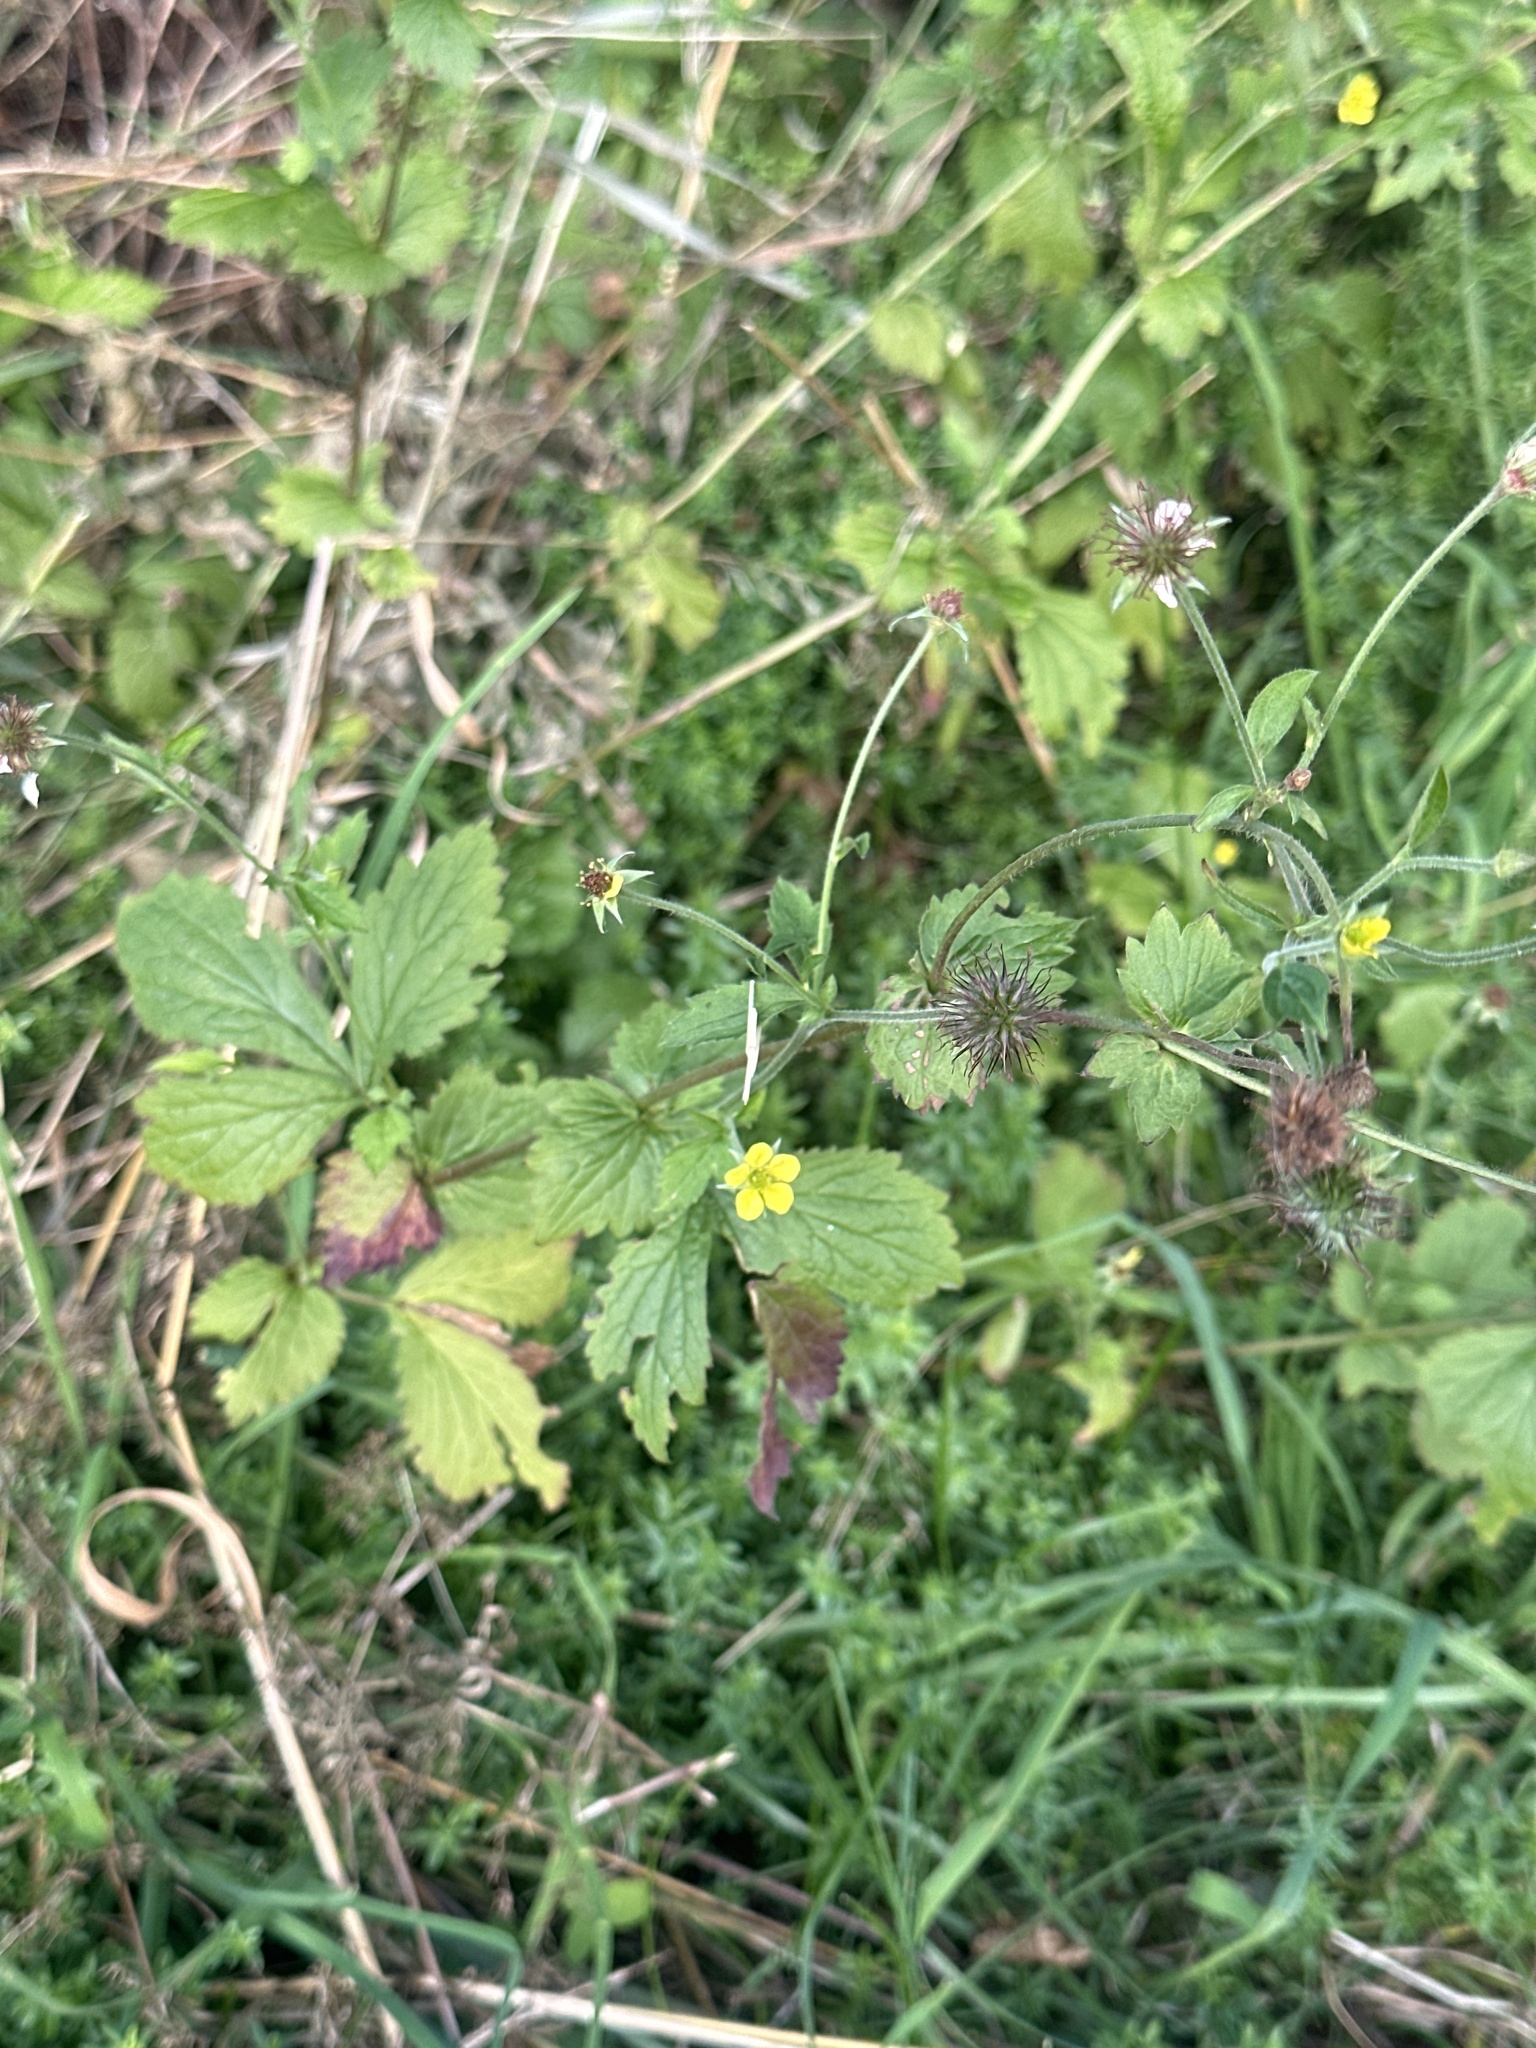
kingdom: Plantae
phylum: Tracheophyta
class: Magnoliopsida
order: Rosales
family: Rosaceae
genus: Geum
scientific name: Geum urbanum
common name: Wood avens
